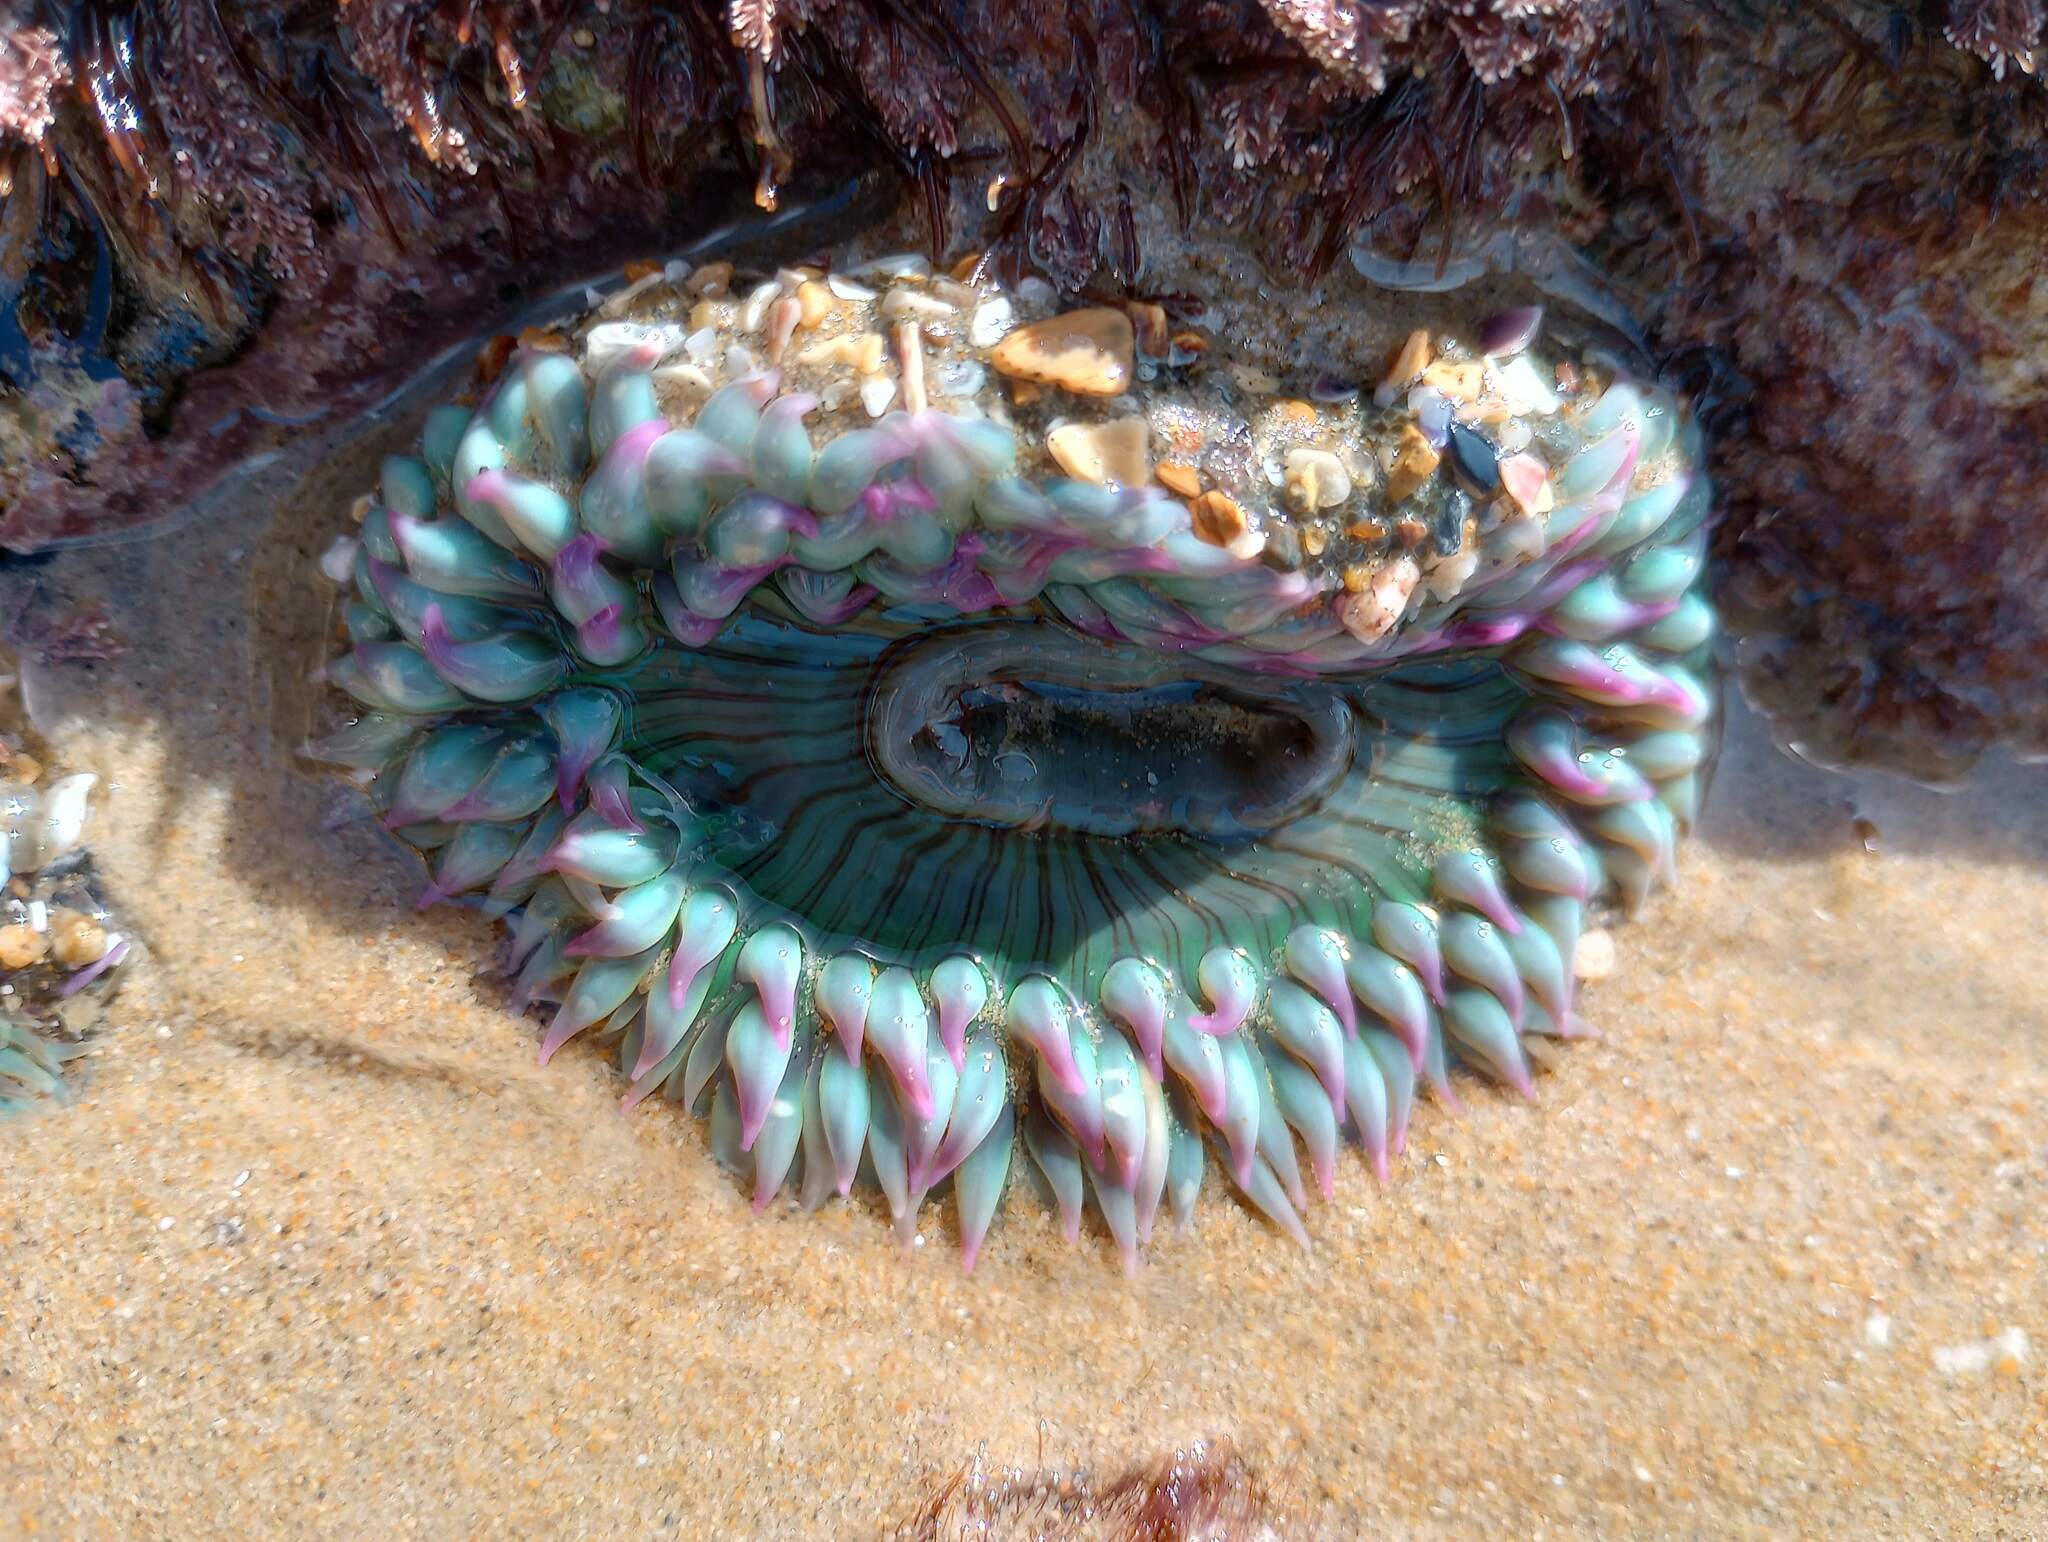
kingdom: Animalia
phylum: Cnidaria
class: Anthozoa
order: Actiniaria
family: Actiniidae
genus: Anthopleura
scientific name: Anthopleura sola
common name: Sun anemone
